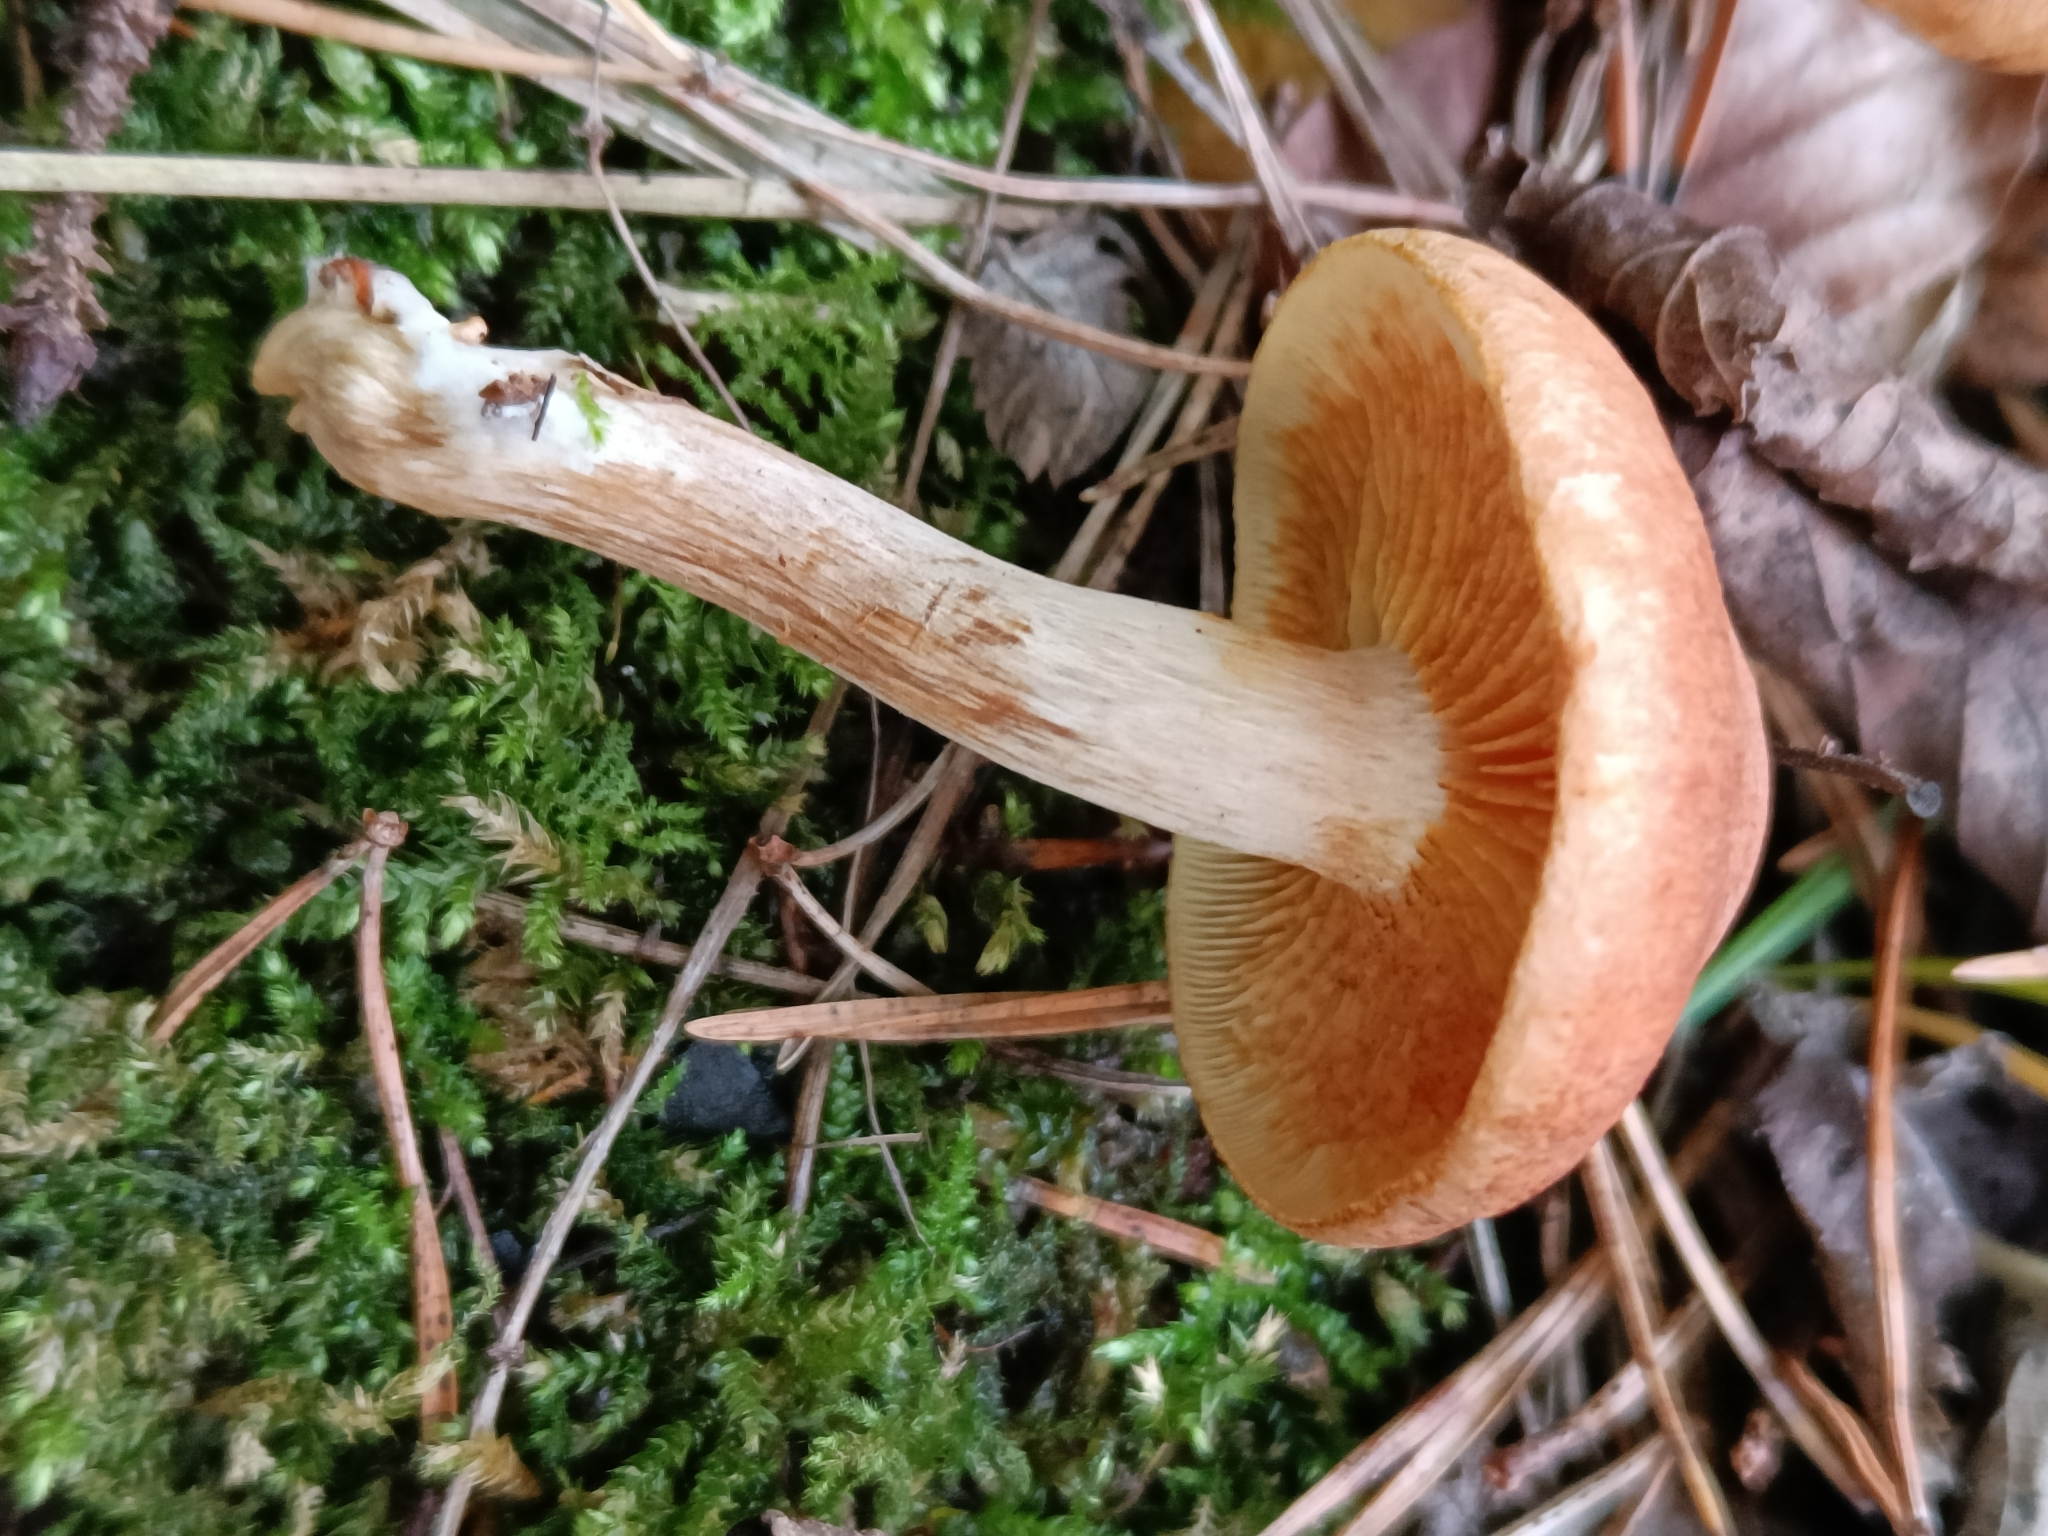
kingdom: Fungi
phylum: Basidiomycota
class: Agaricomycetes
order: Agaricales
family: Hymenogastraceae
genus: Gymnopilus
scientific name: Gymnopilus penetrans
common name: Common rustgill
